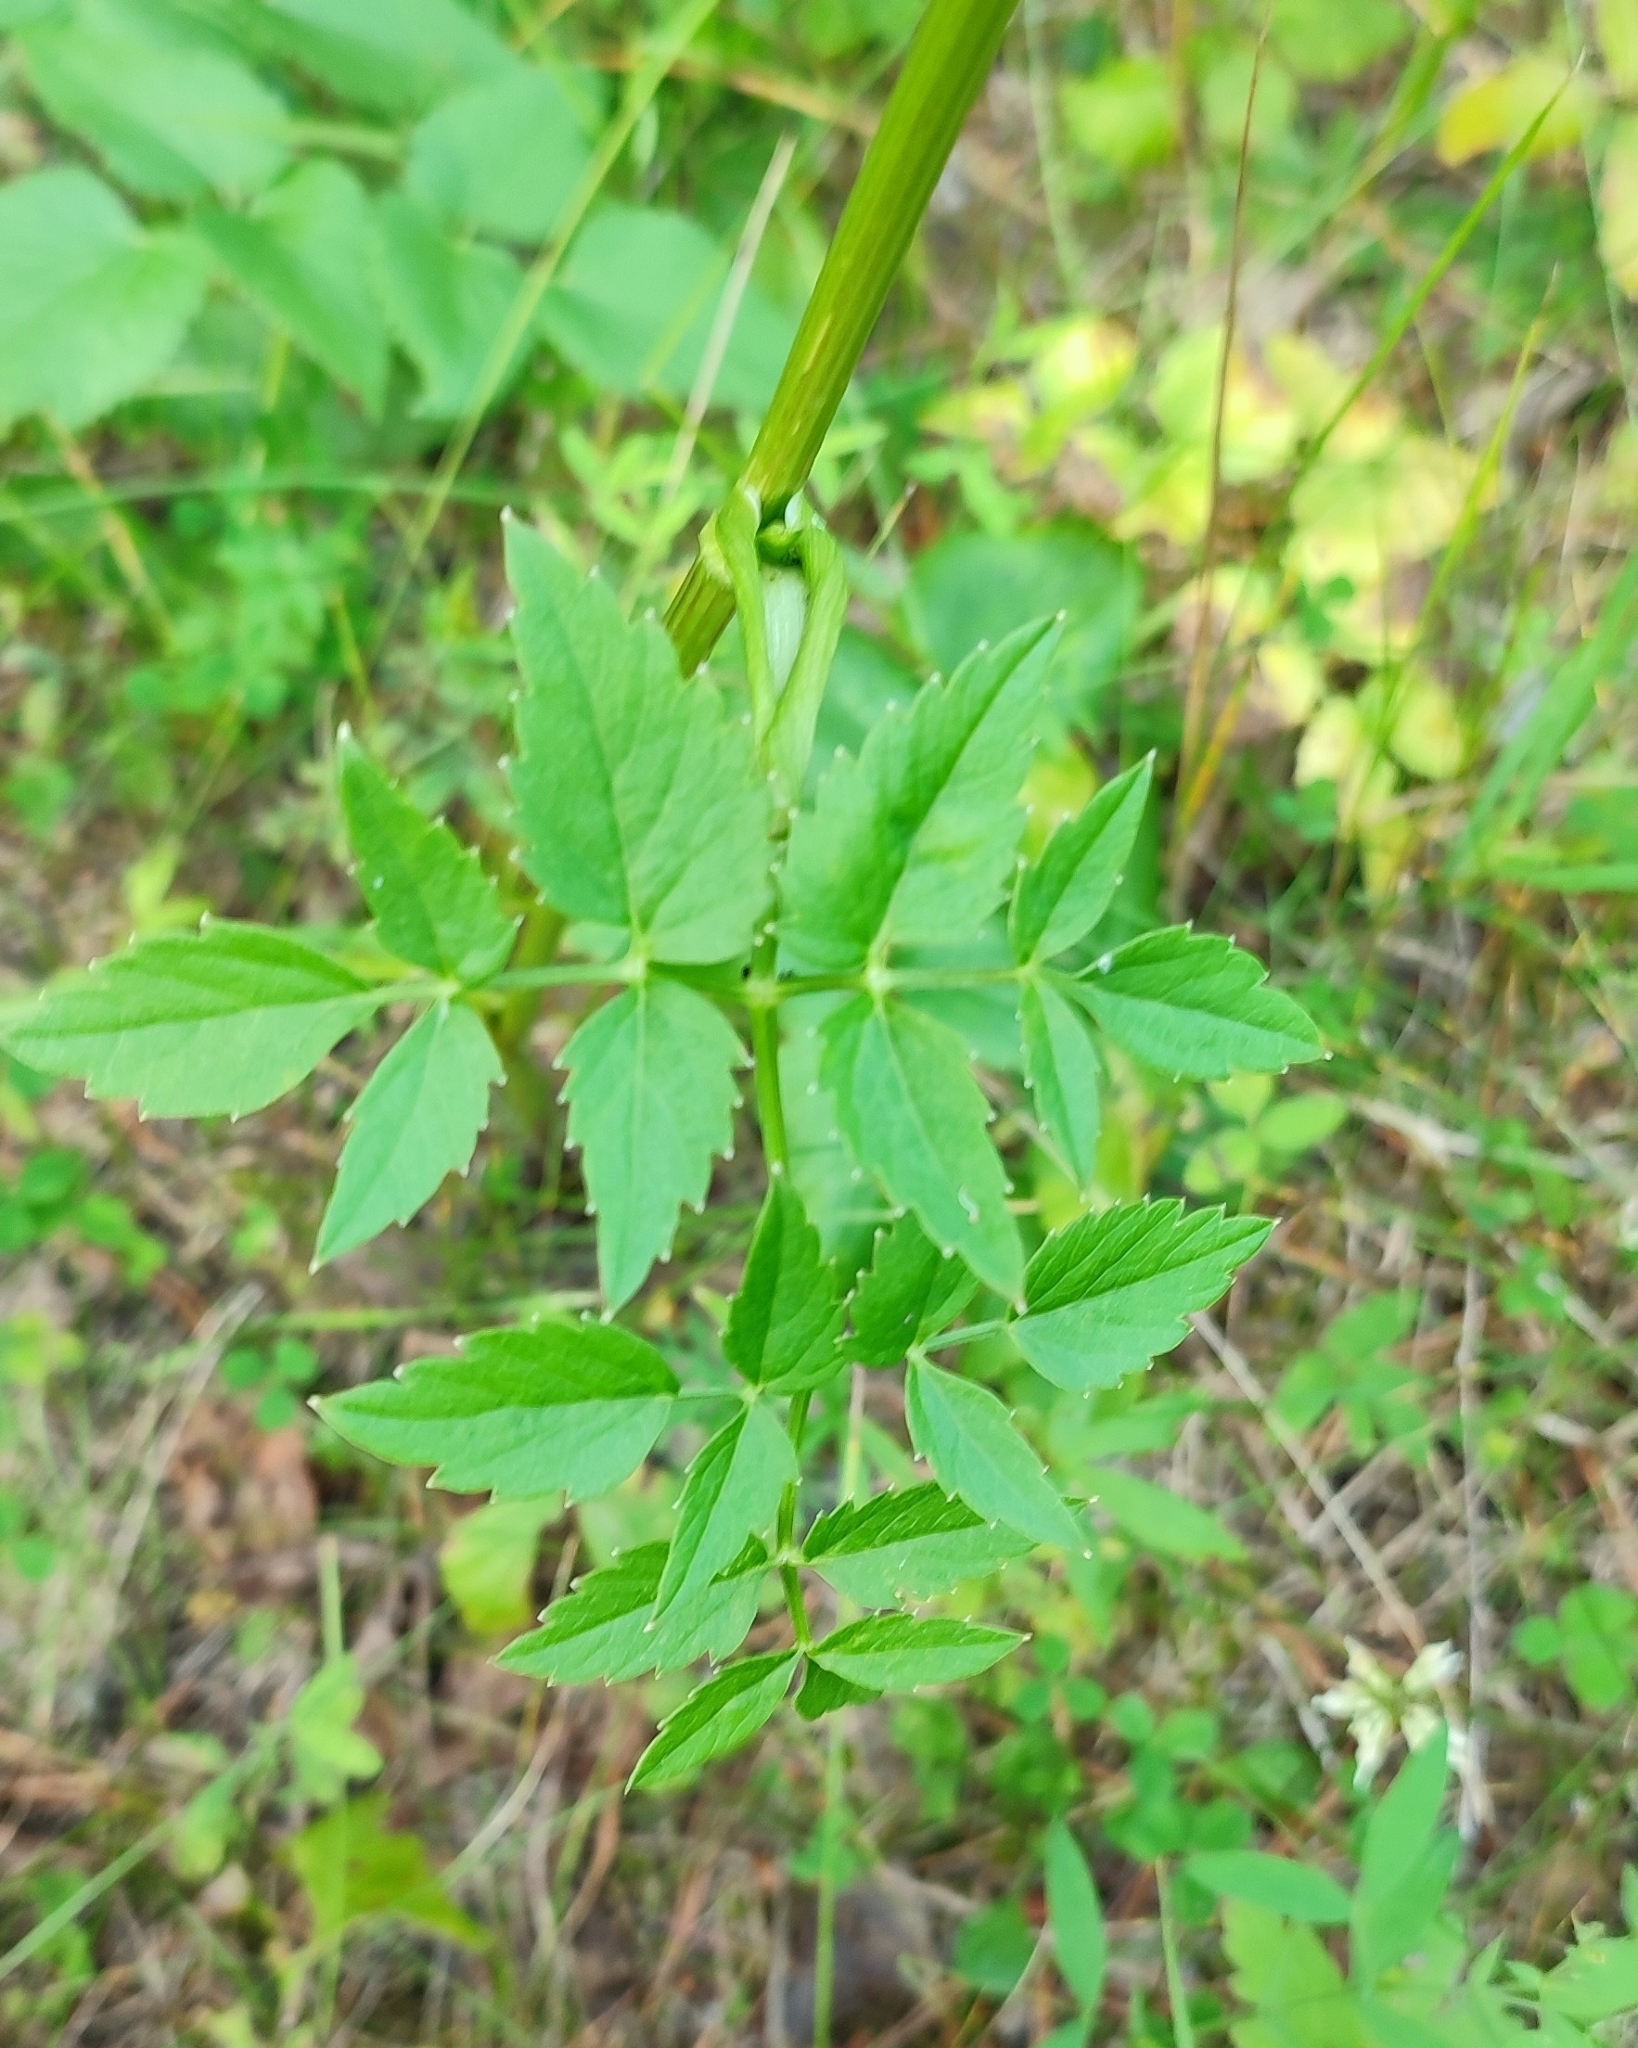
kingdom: Plantae
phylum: Tracheophyta
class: Magnoliopsida
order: Apiales
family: Apiaceae
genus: Ostericum
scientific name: Ostericum palustre
